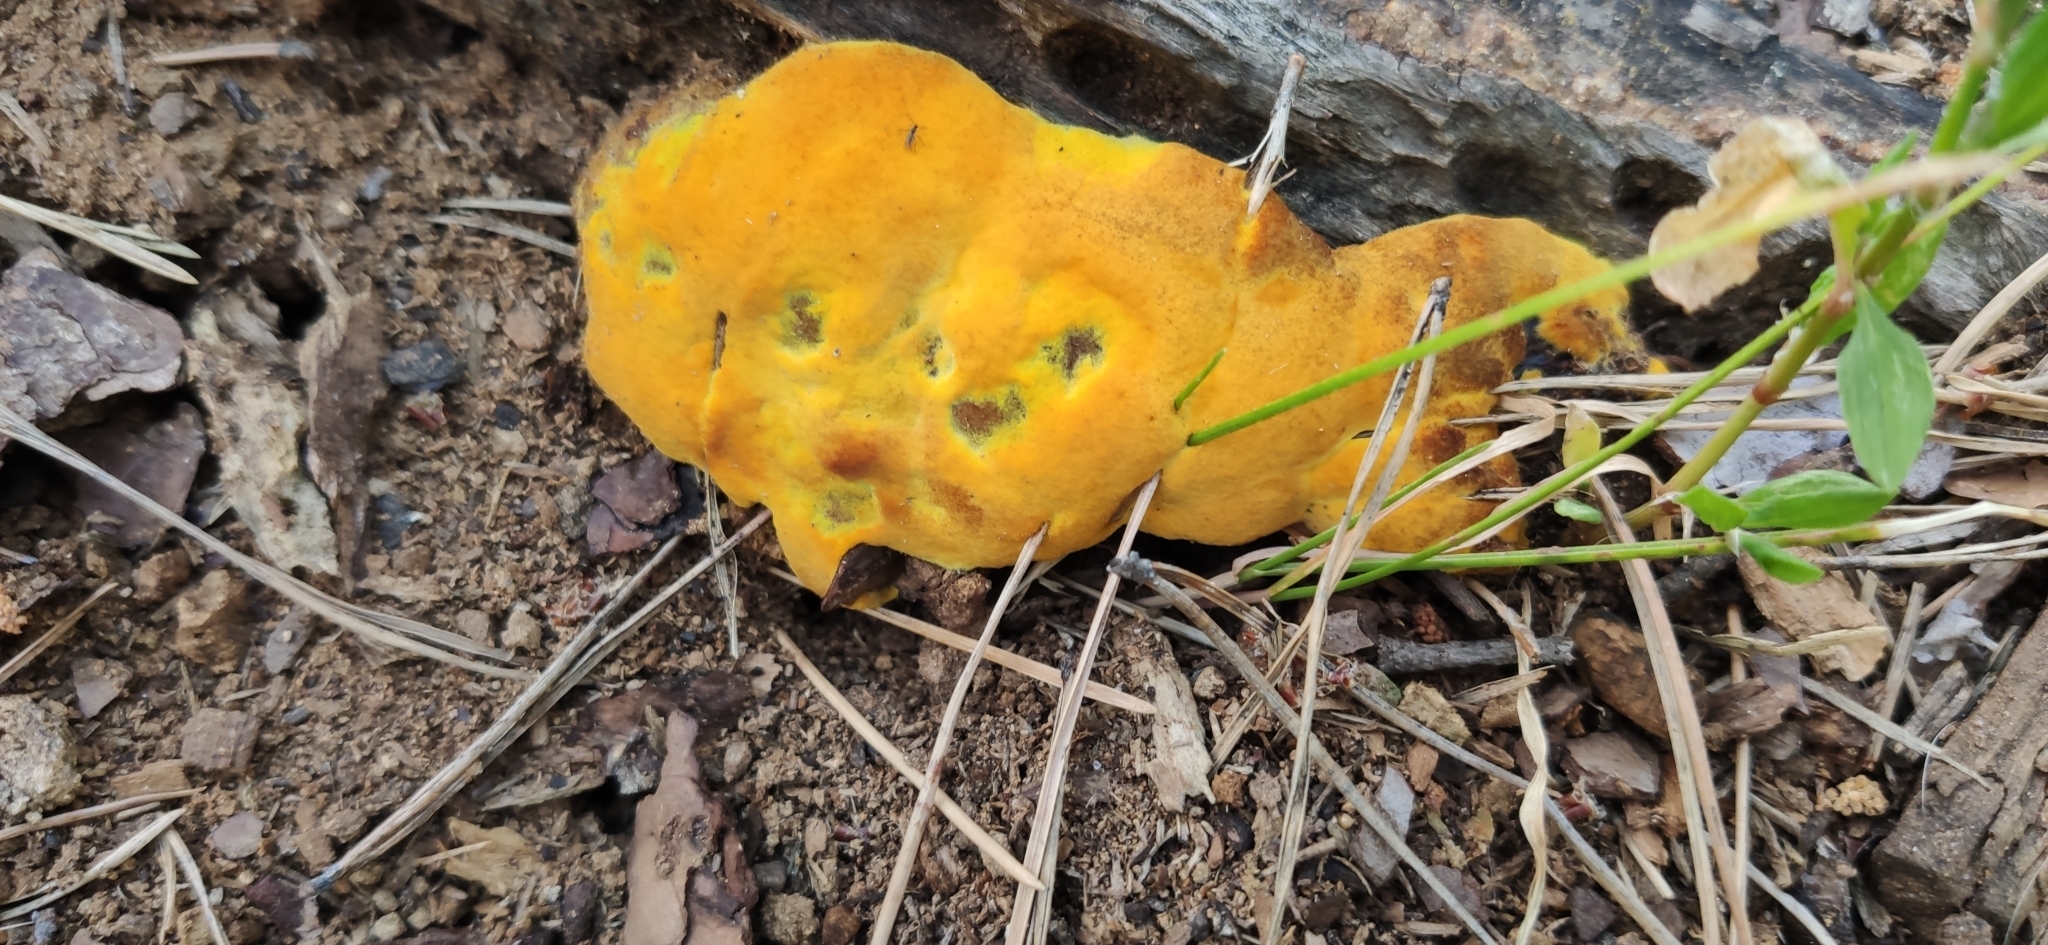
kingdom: Fungi
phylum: Basidiomycota
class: Agaricomycetes
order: Polyporales
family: Laetiporaceae
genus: Phaeolus
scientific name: Phaeolus schweinitzii
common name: Dyer's mazegill
